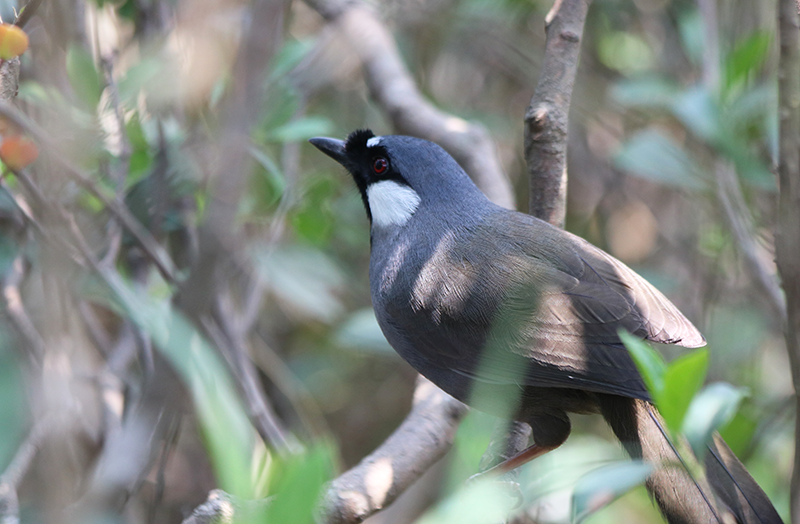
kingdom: Animalia
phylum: Chordata
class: Aves
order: Passeriformes
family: Leiothrichidae
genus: Garrulax
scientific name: Garrulax chinensis
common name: Black-throated laughingthrush
